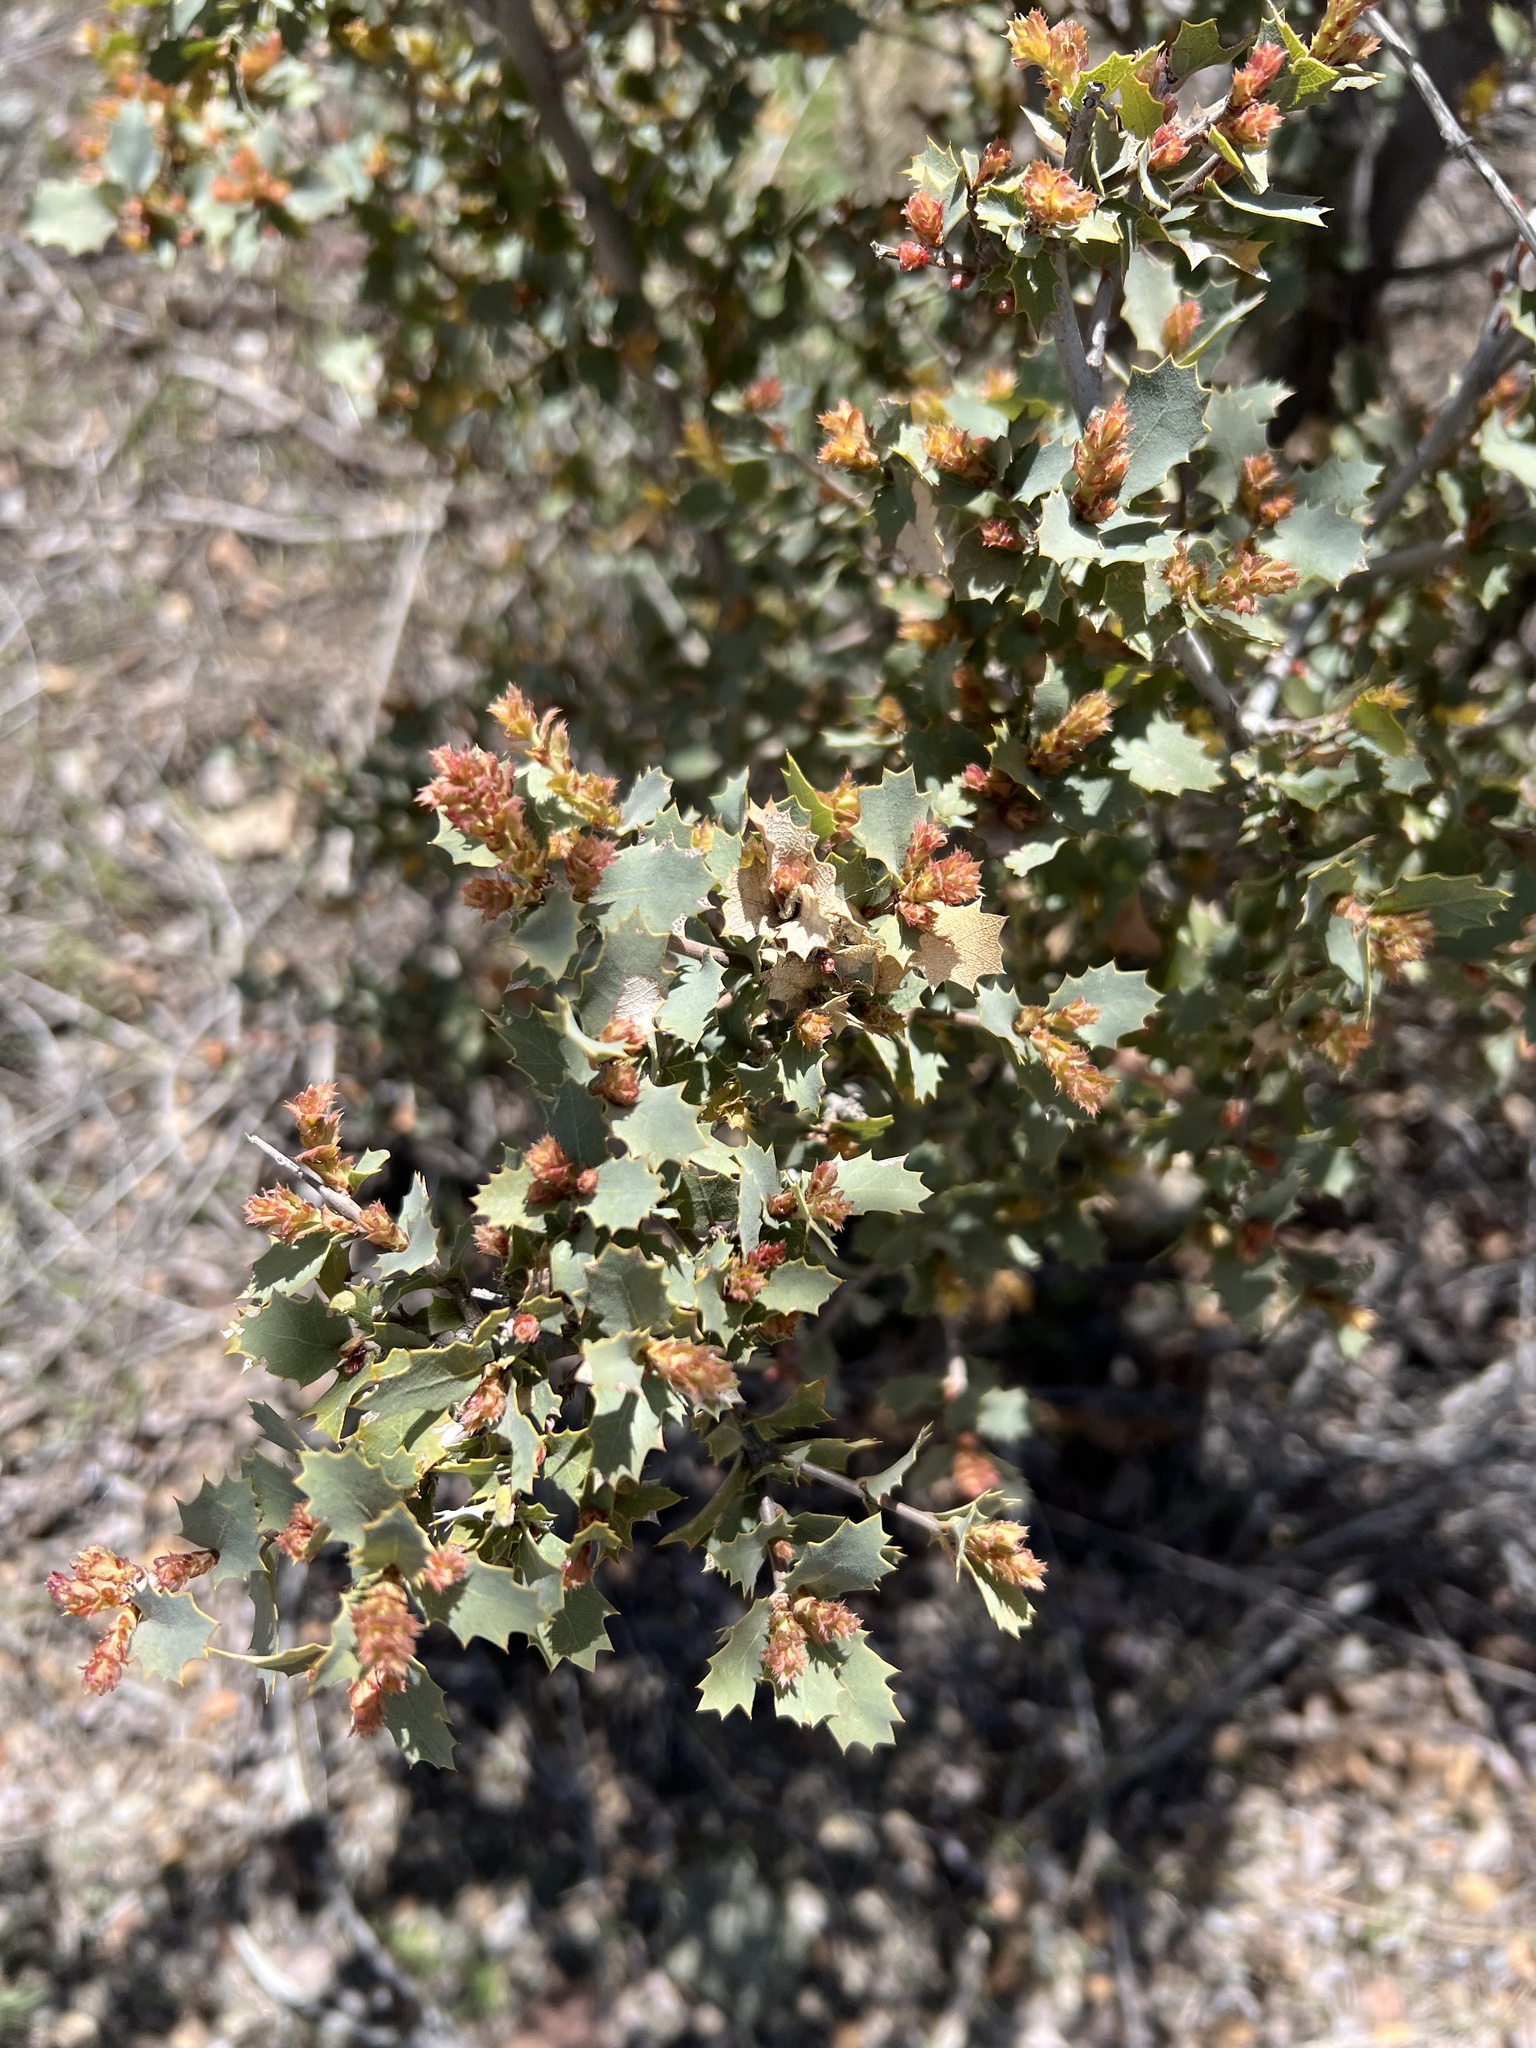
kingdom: Plantae
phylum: Tracheophyta
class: Magnoliopsida
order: Fagales
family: Fagaceae
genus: Quercus
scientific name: Quercus turbinella
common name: Sonoran scrub oak
